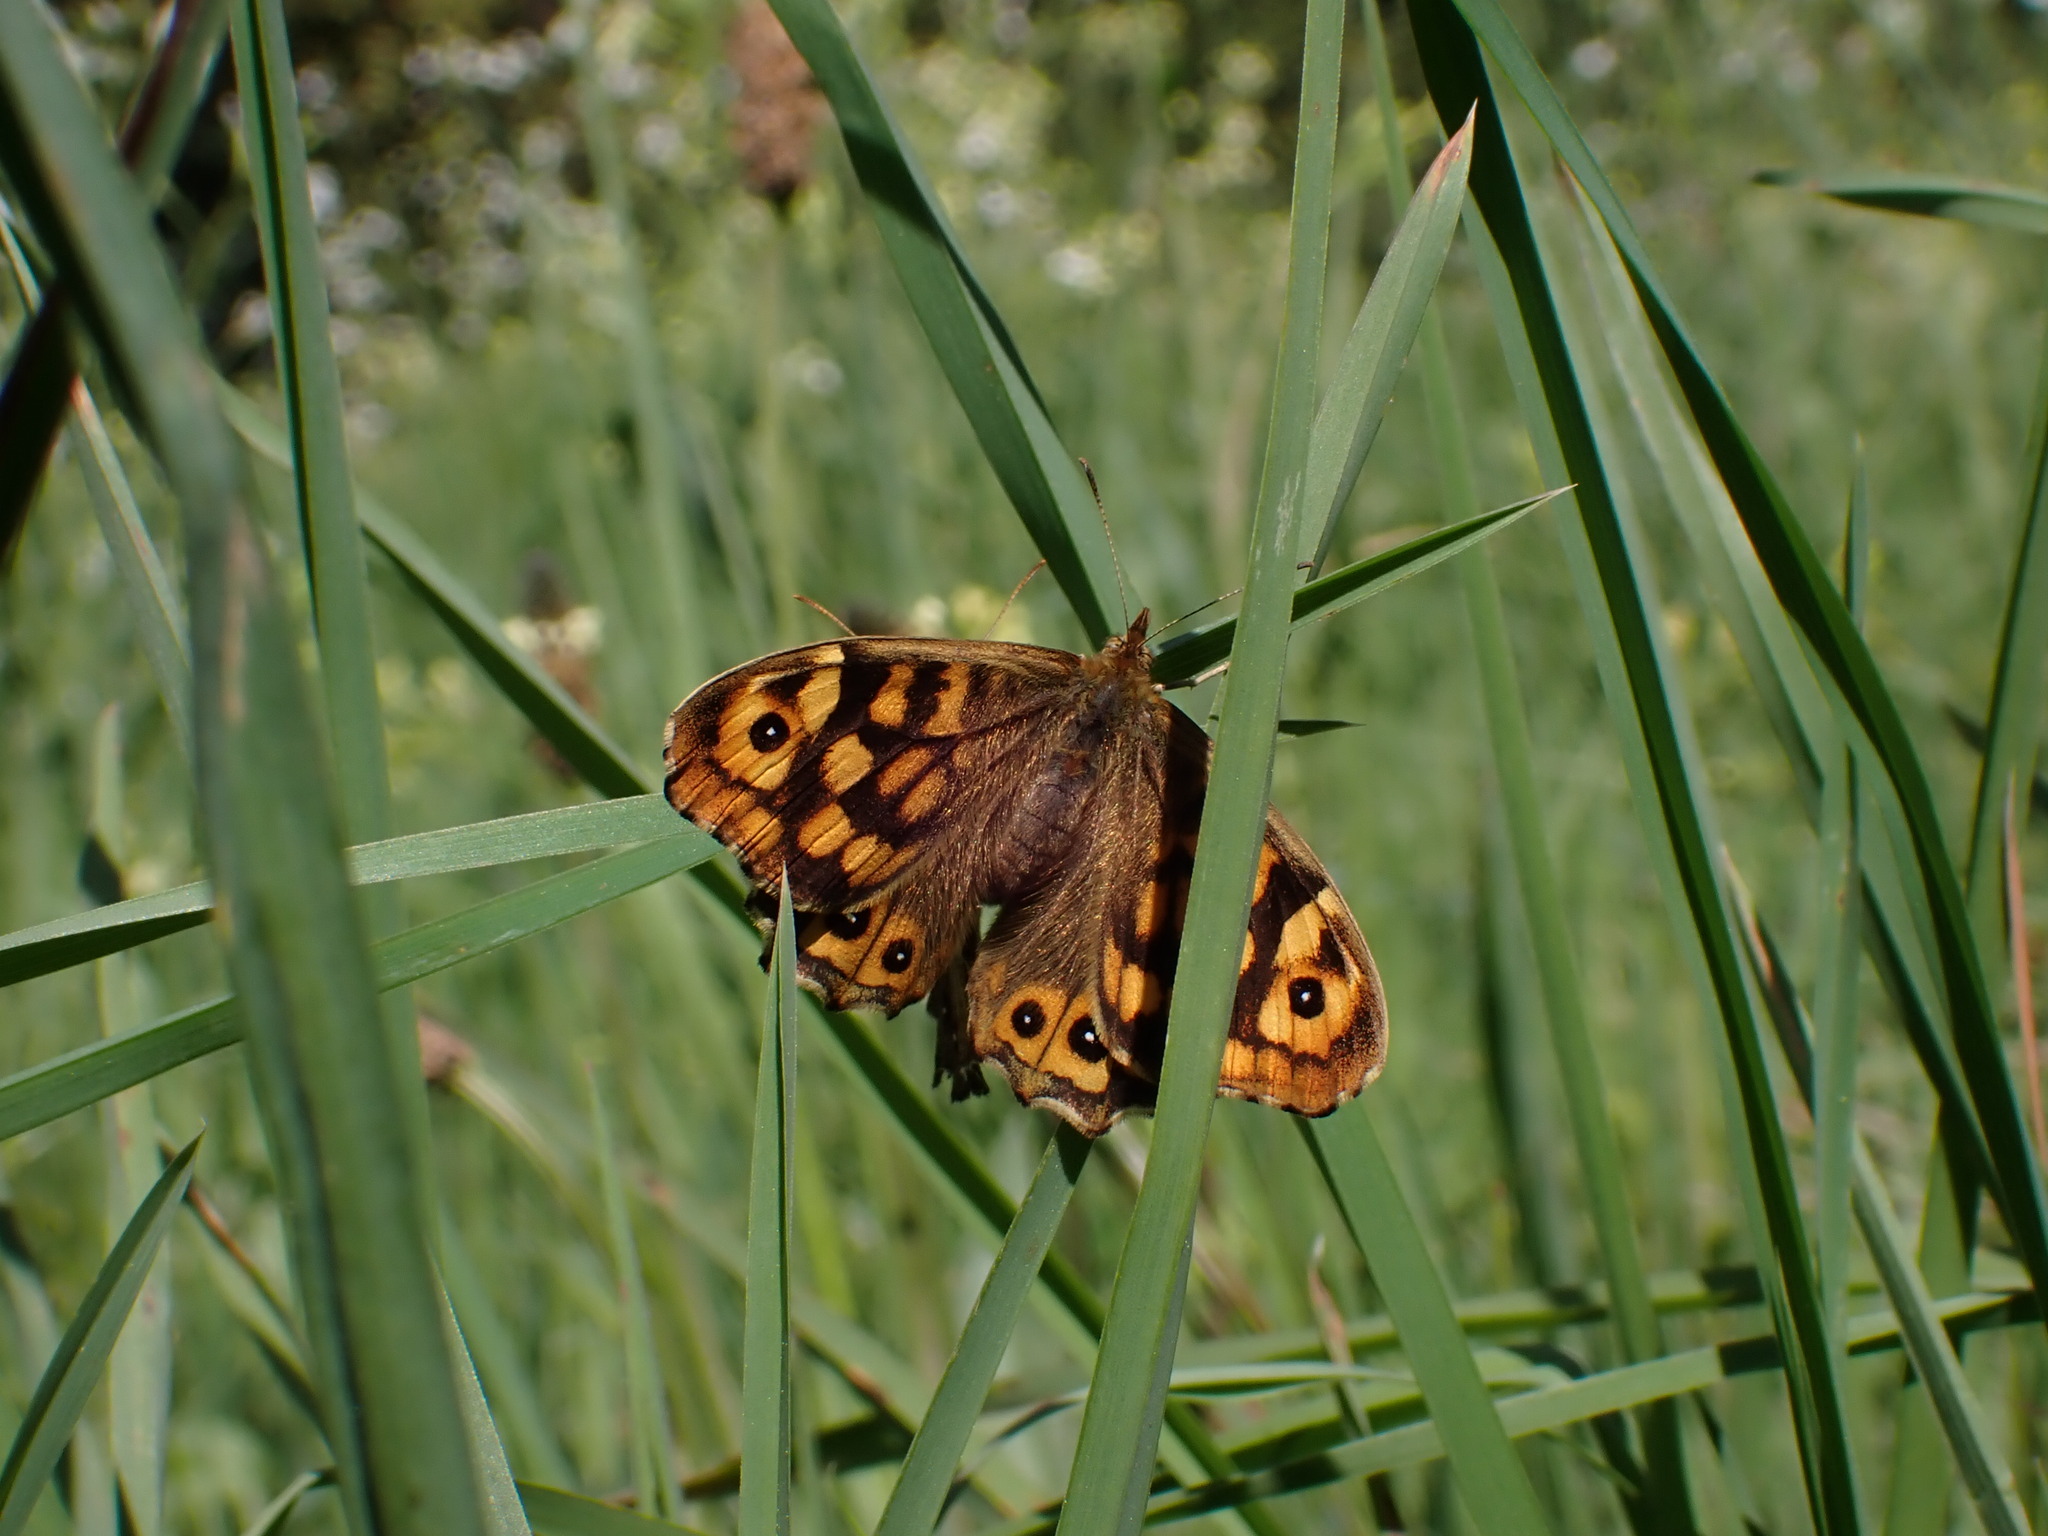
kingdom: Animalia
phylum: Arthropoda
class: Insecta
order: Lepidoptera
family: Nymphalidae
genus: Pararge
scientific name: Pararge aegeria
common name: Speckled wood
